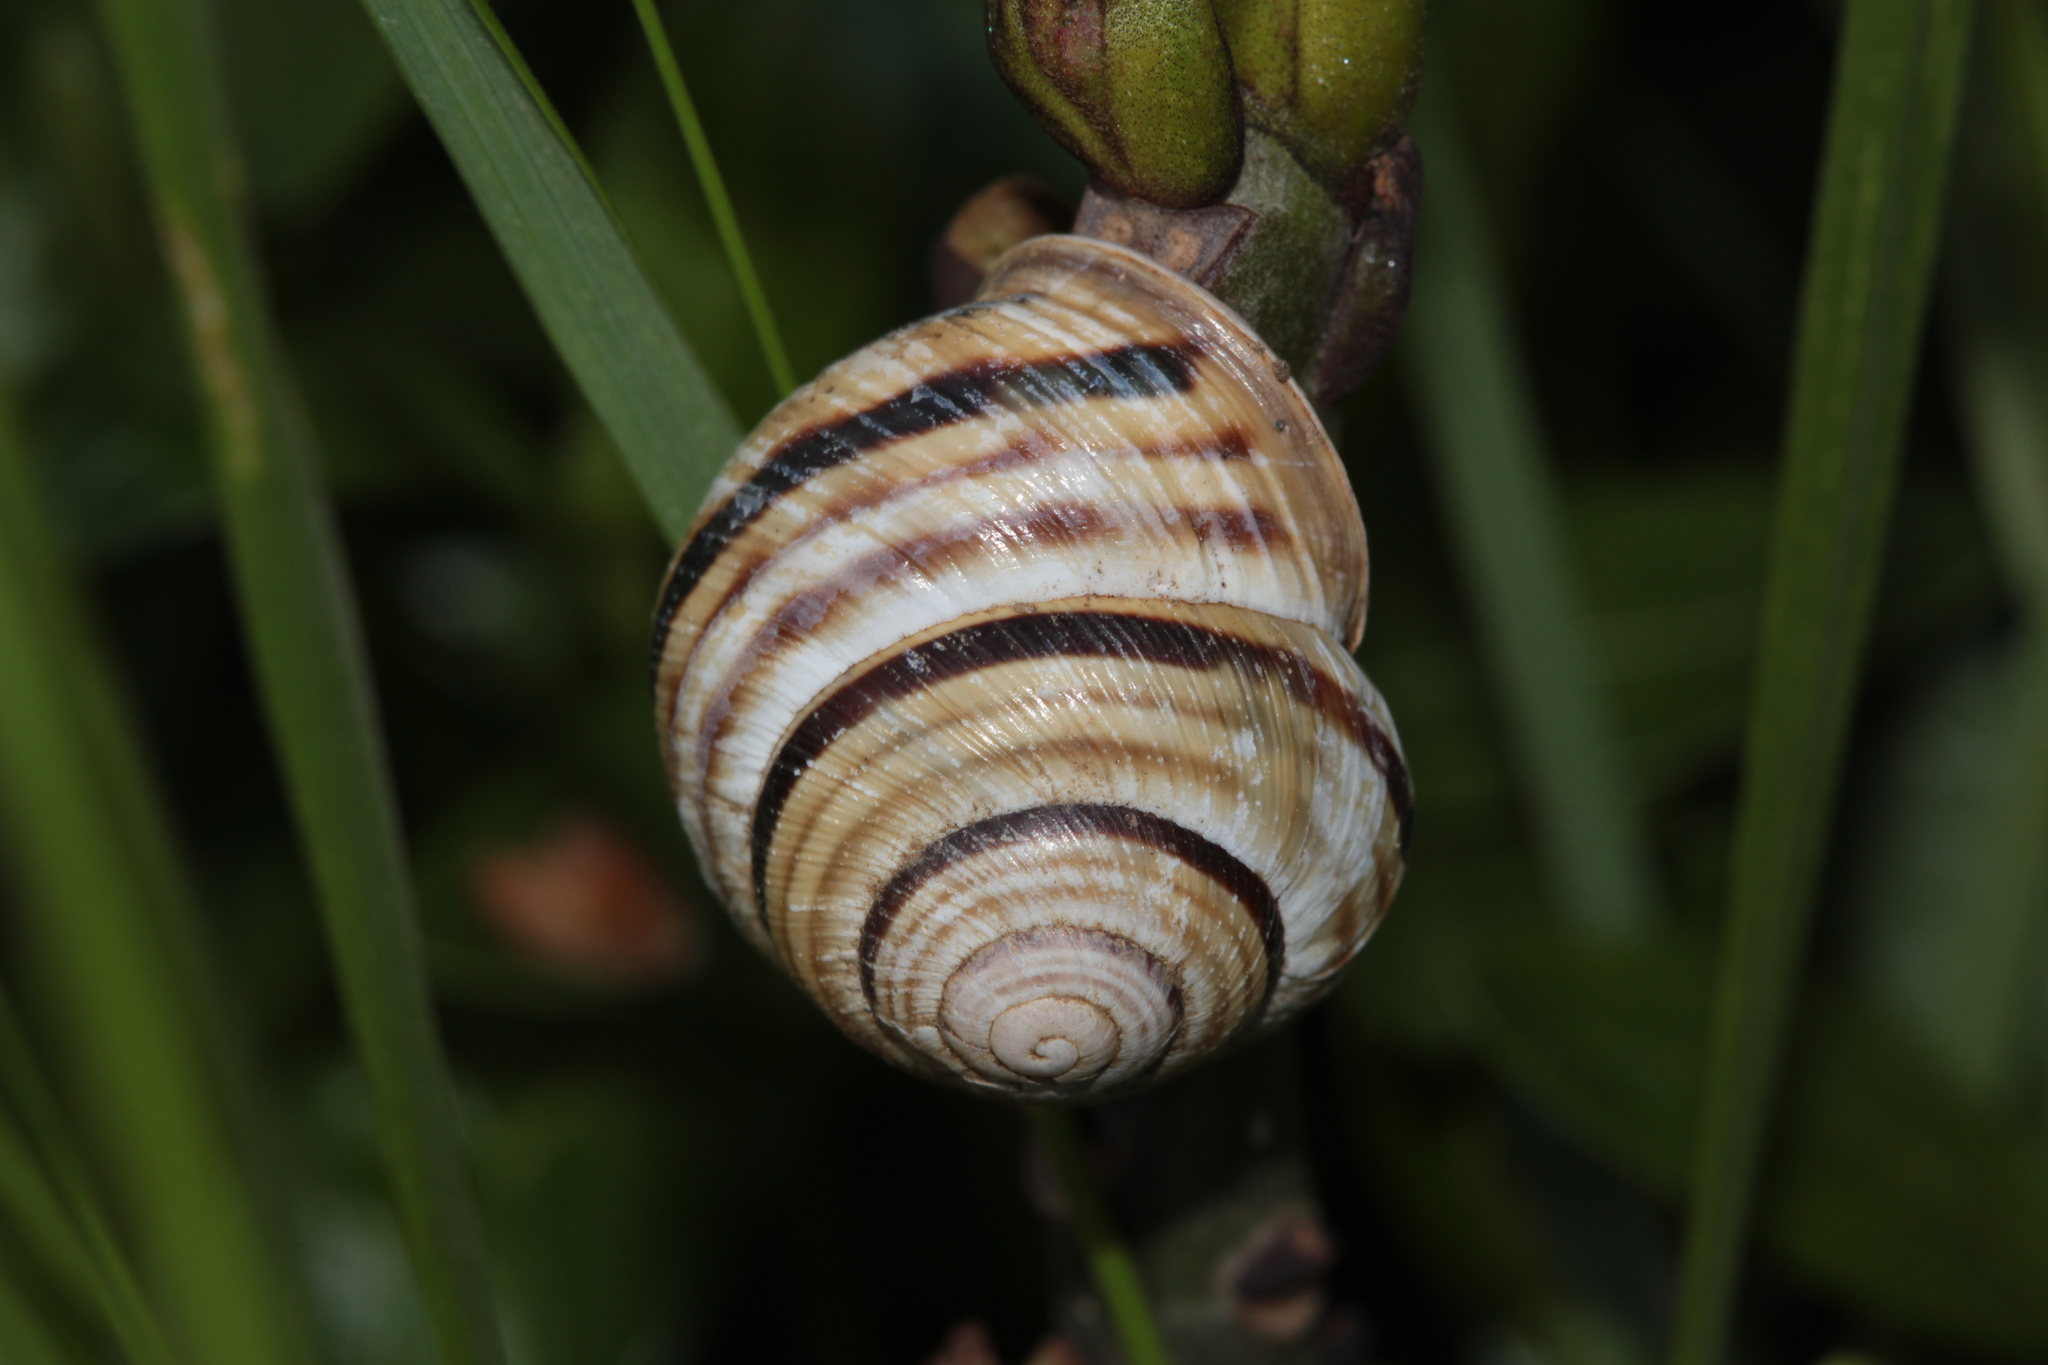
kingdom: Animalia
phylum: Mollusca
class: Gastropoda
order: Stylommatophora
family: Helicidae
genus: Caucasotachea
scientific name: Caucasotachea vindobonensis
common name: European helicid land snail
